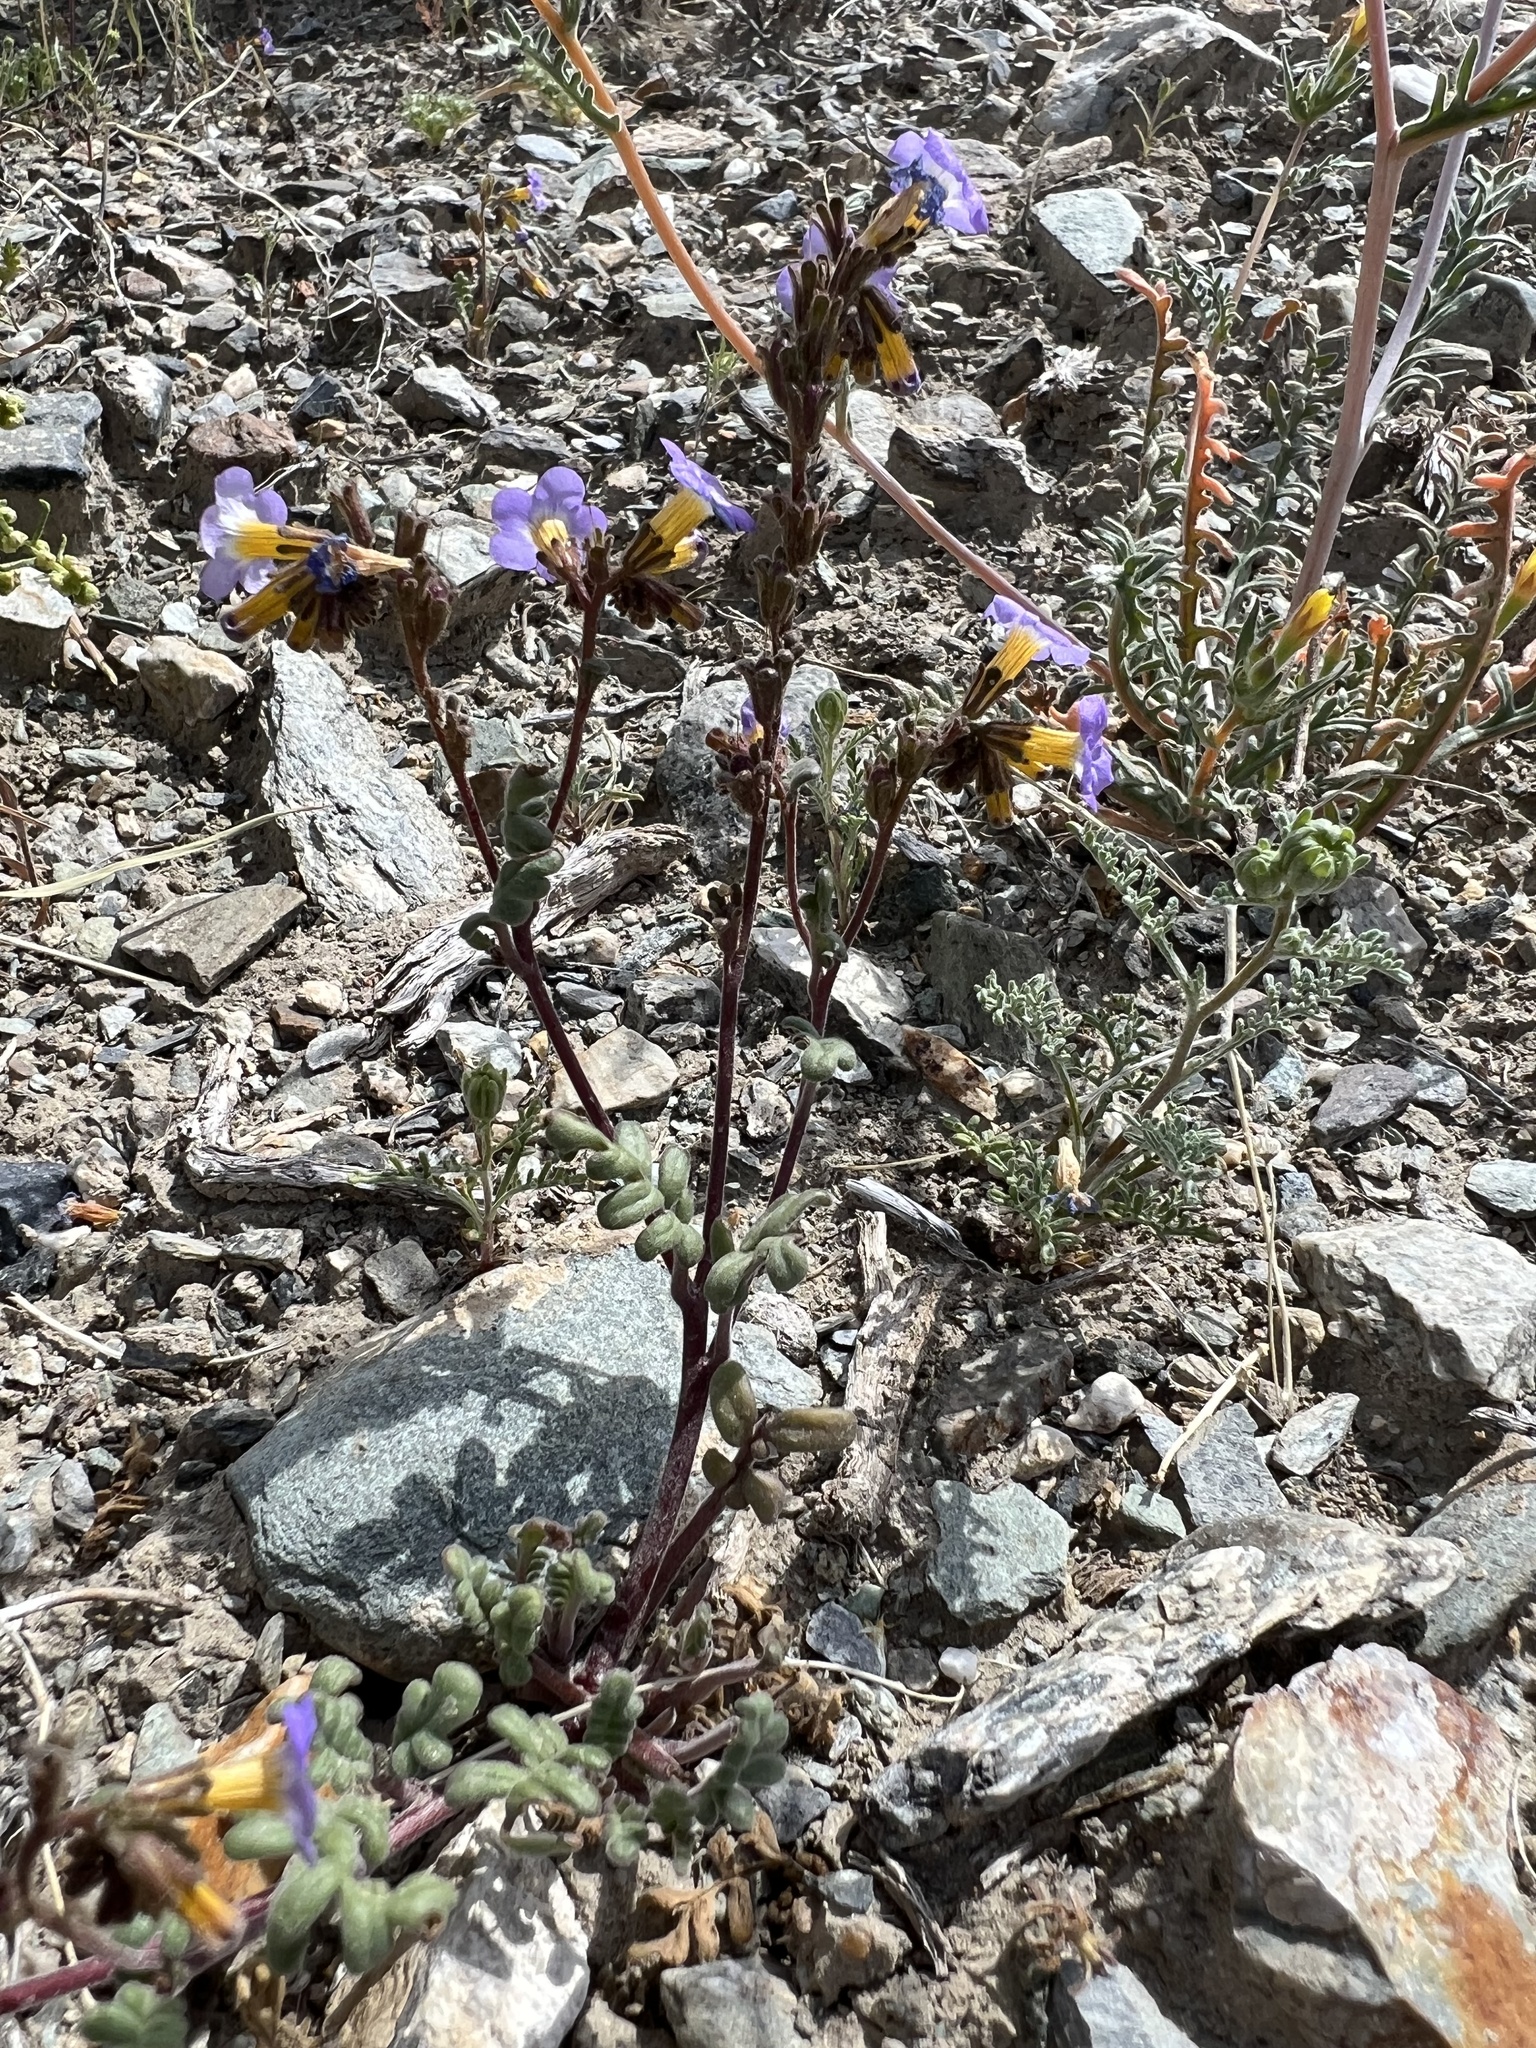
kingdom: Plantae
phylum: Tracheophyta
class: Magnoliopsida
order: Boraginales
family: Hydrophyllaceae
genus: Phacelia
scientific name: Phacelia fremontii
